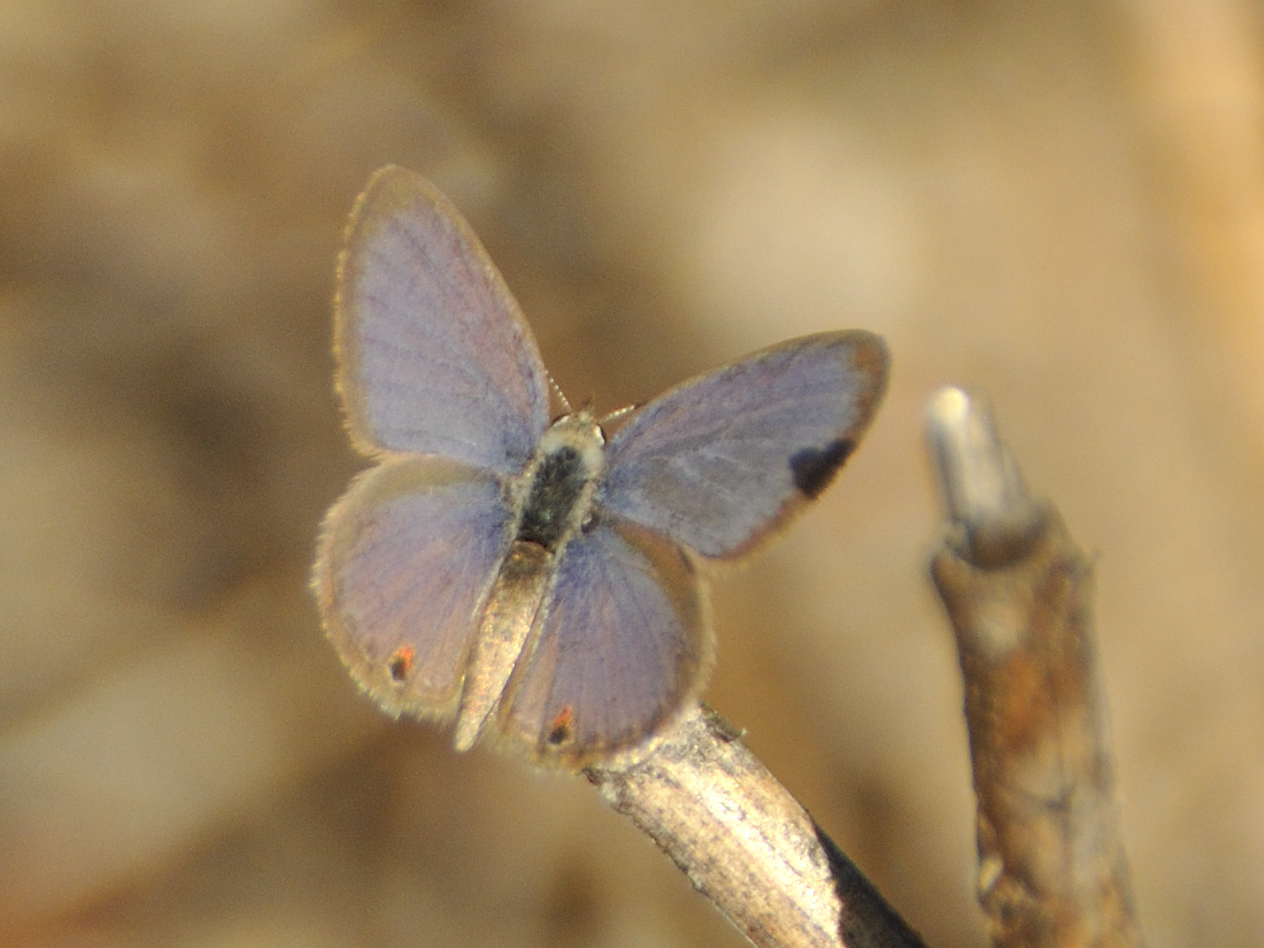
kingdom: Animalia
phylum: Arthropoda
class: Insecta
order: Lepidoptera
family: Lycaenidae
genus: Eicochrysops
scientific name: Eicochrysops messapus
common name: Cupreous blue
